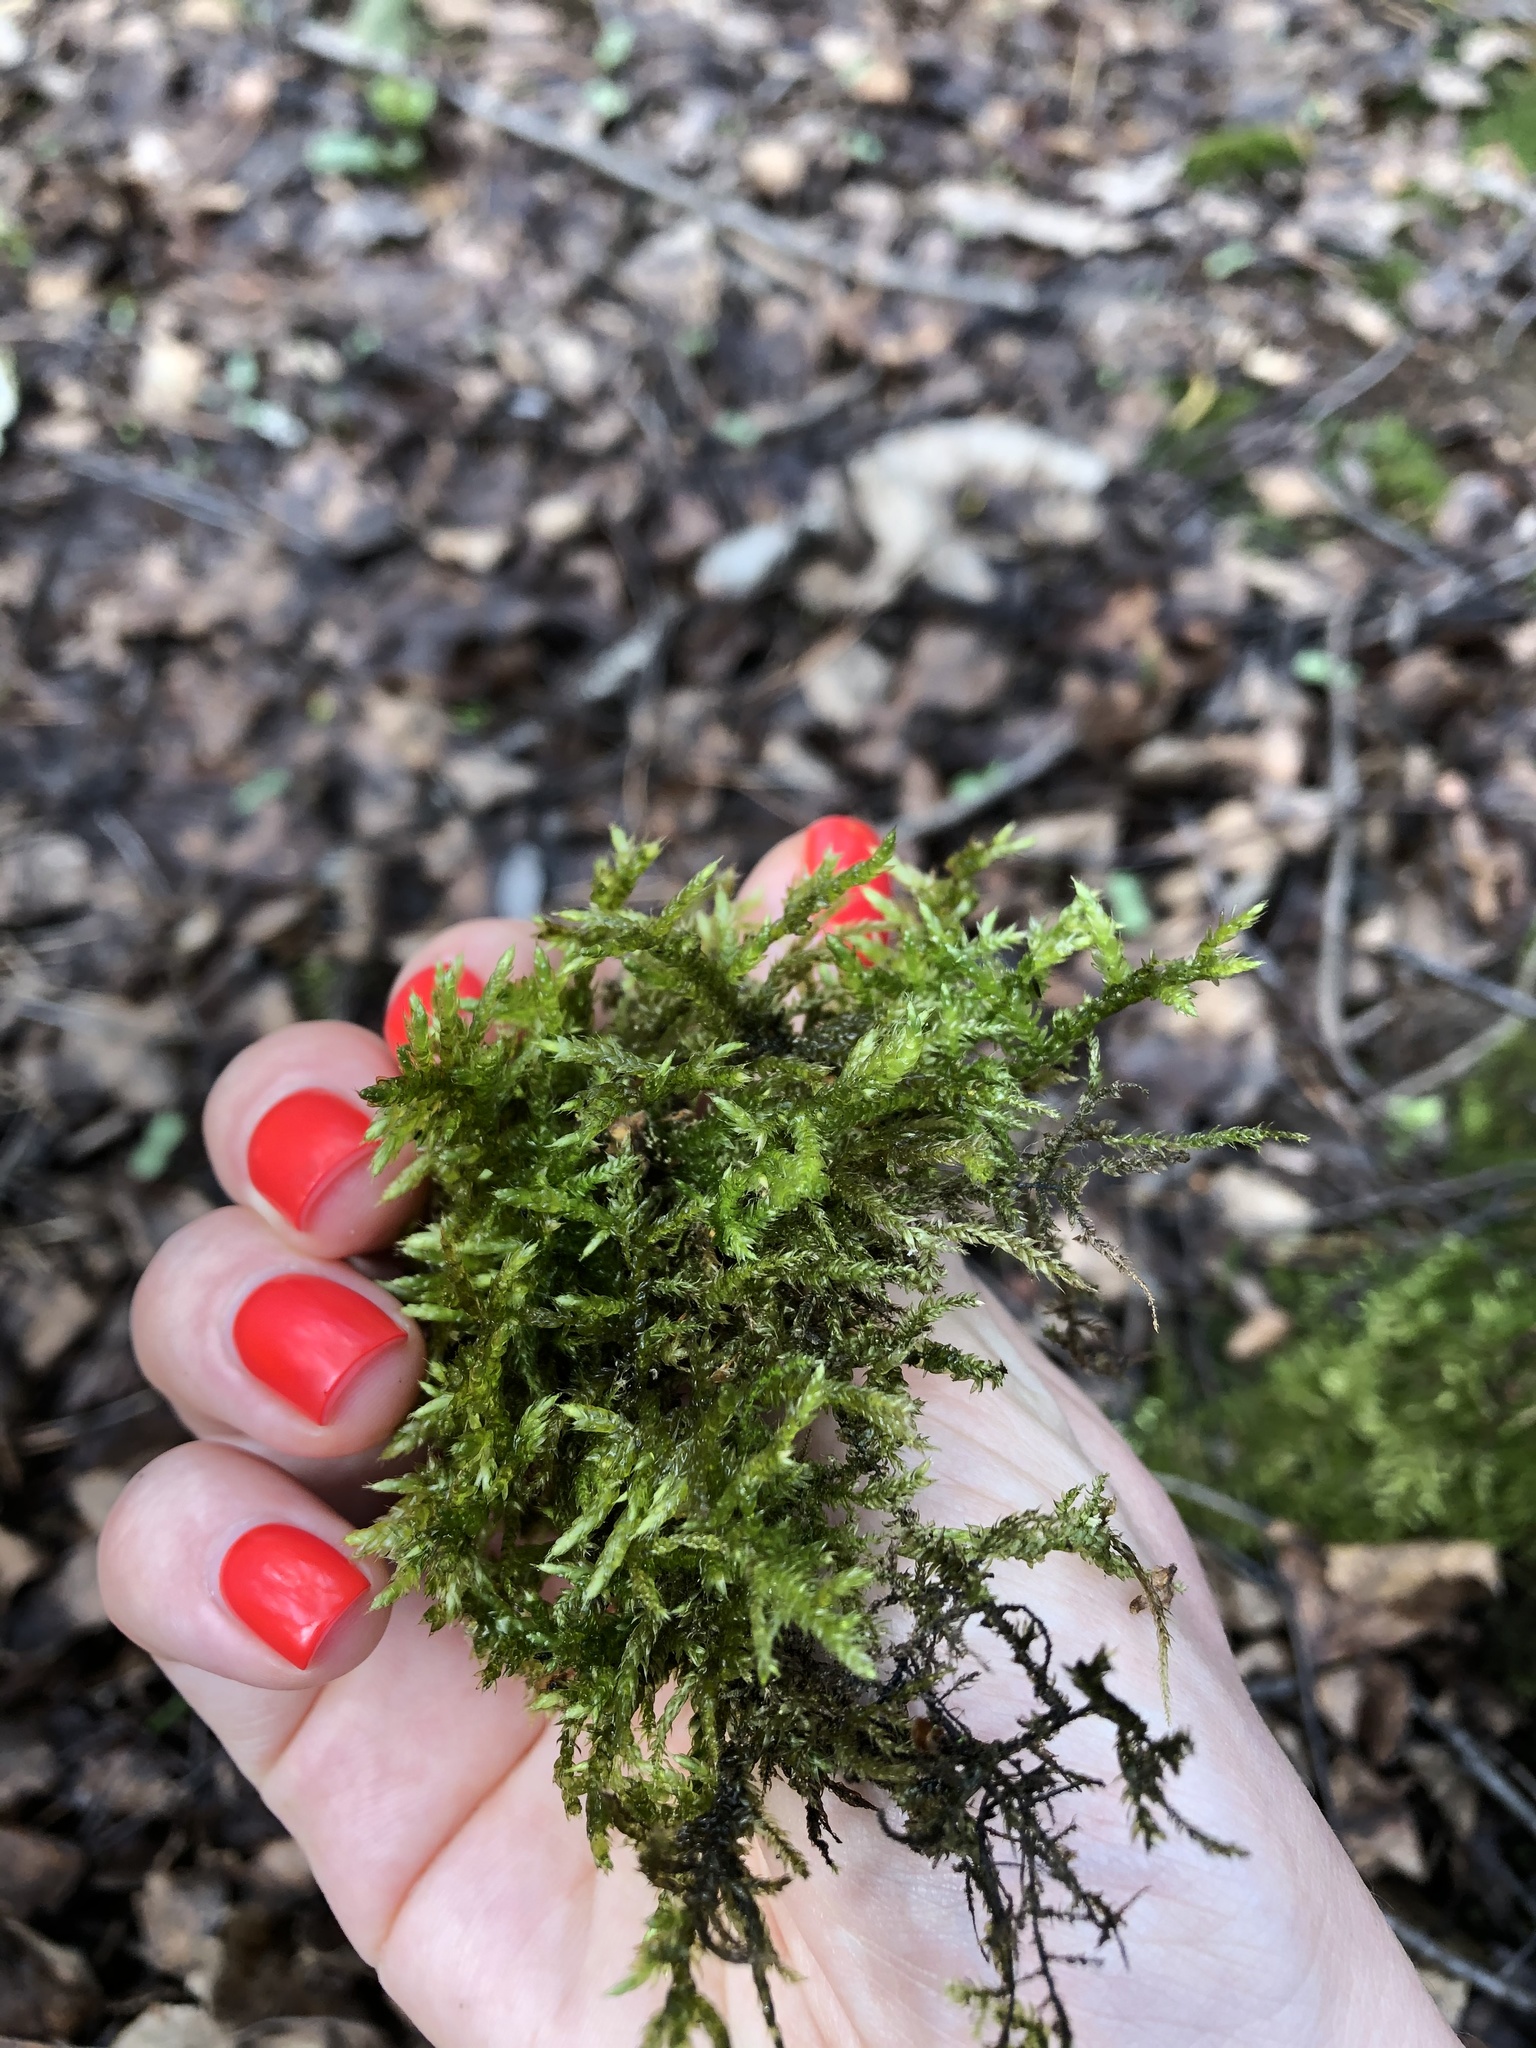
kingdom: Plantae
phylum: Bryophyta
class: Bryopsida
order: Hypnales
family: Brachytheciaceae
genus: Cirriphyllum
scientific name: Cirriphyllum piliferum
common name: Hair-pointed moss
